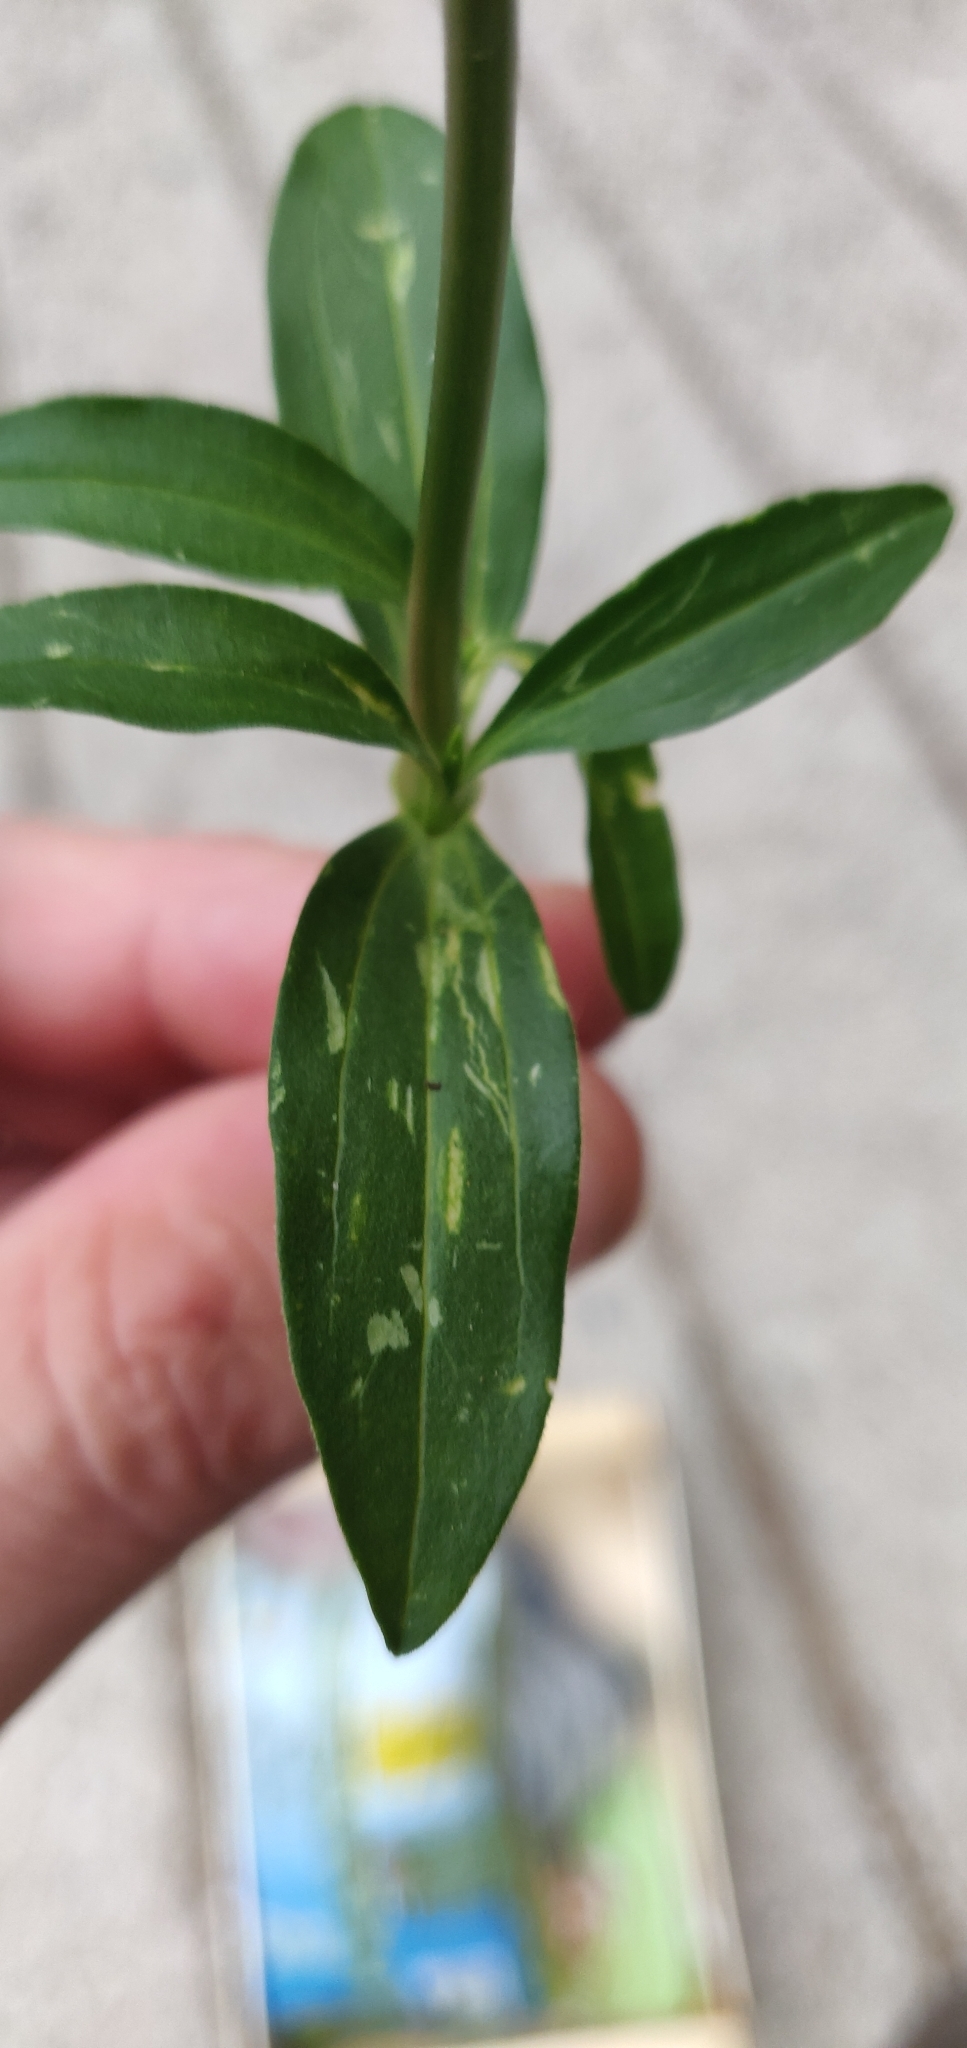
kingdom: Plantae
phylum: Tracheophyta
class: Magnoliopsida
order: Caryophyllales
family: Caryophyllaceae
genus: Saponaria
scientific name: Saponaria officinalis
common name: Soapwort
